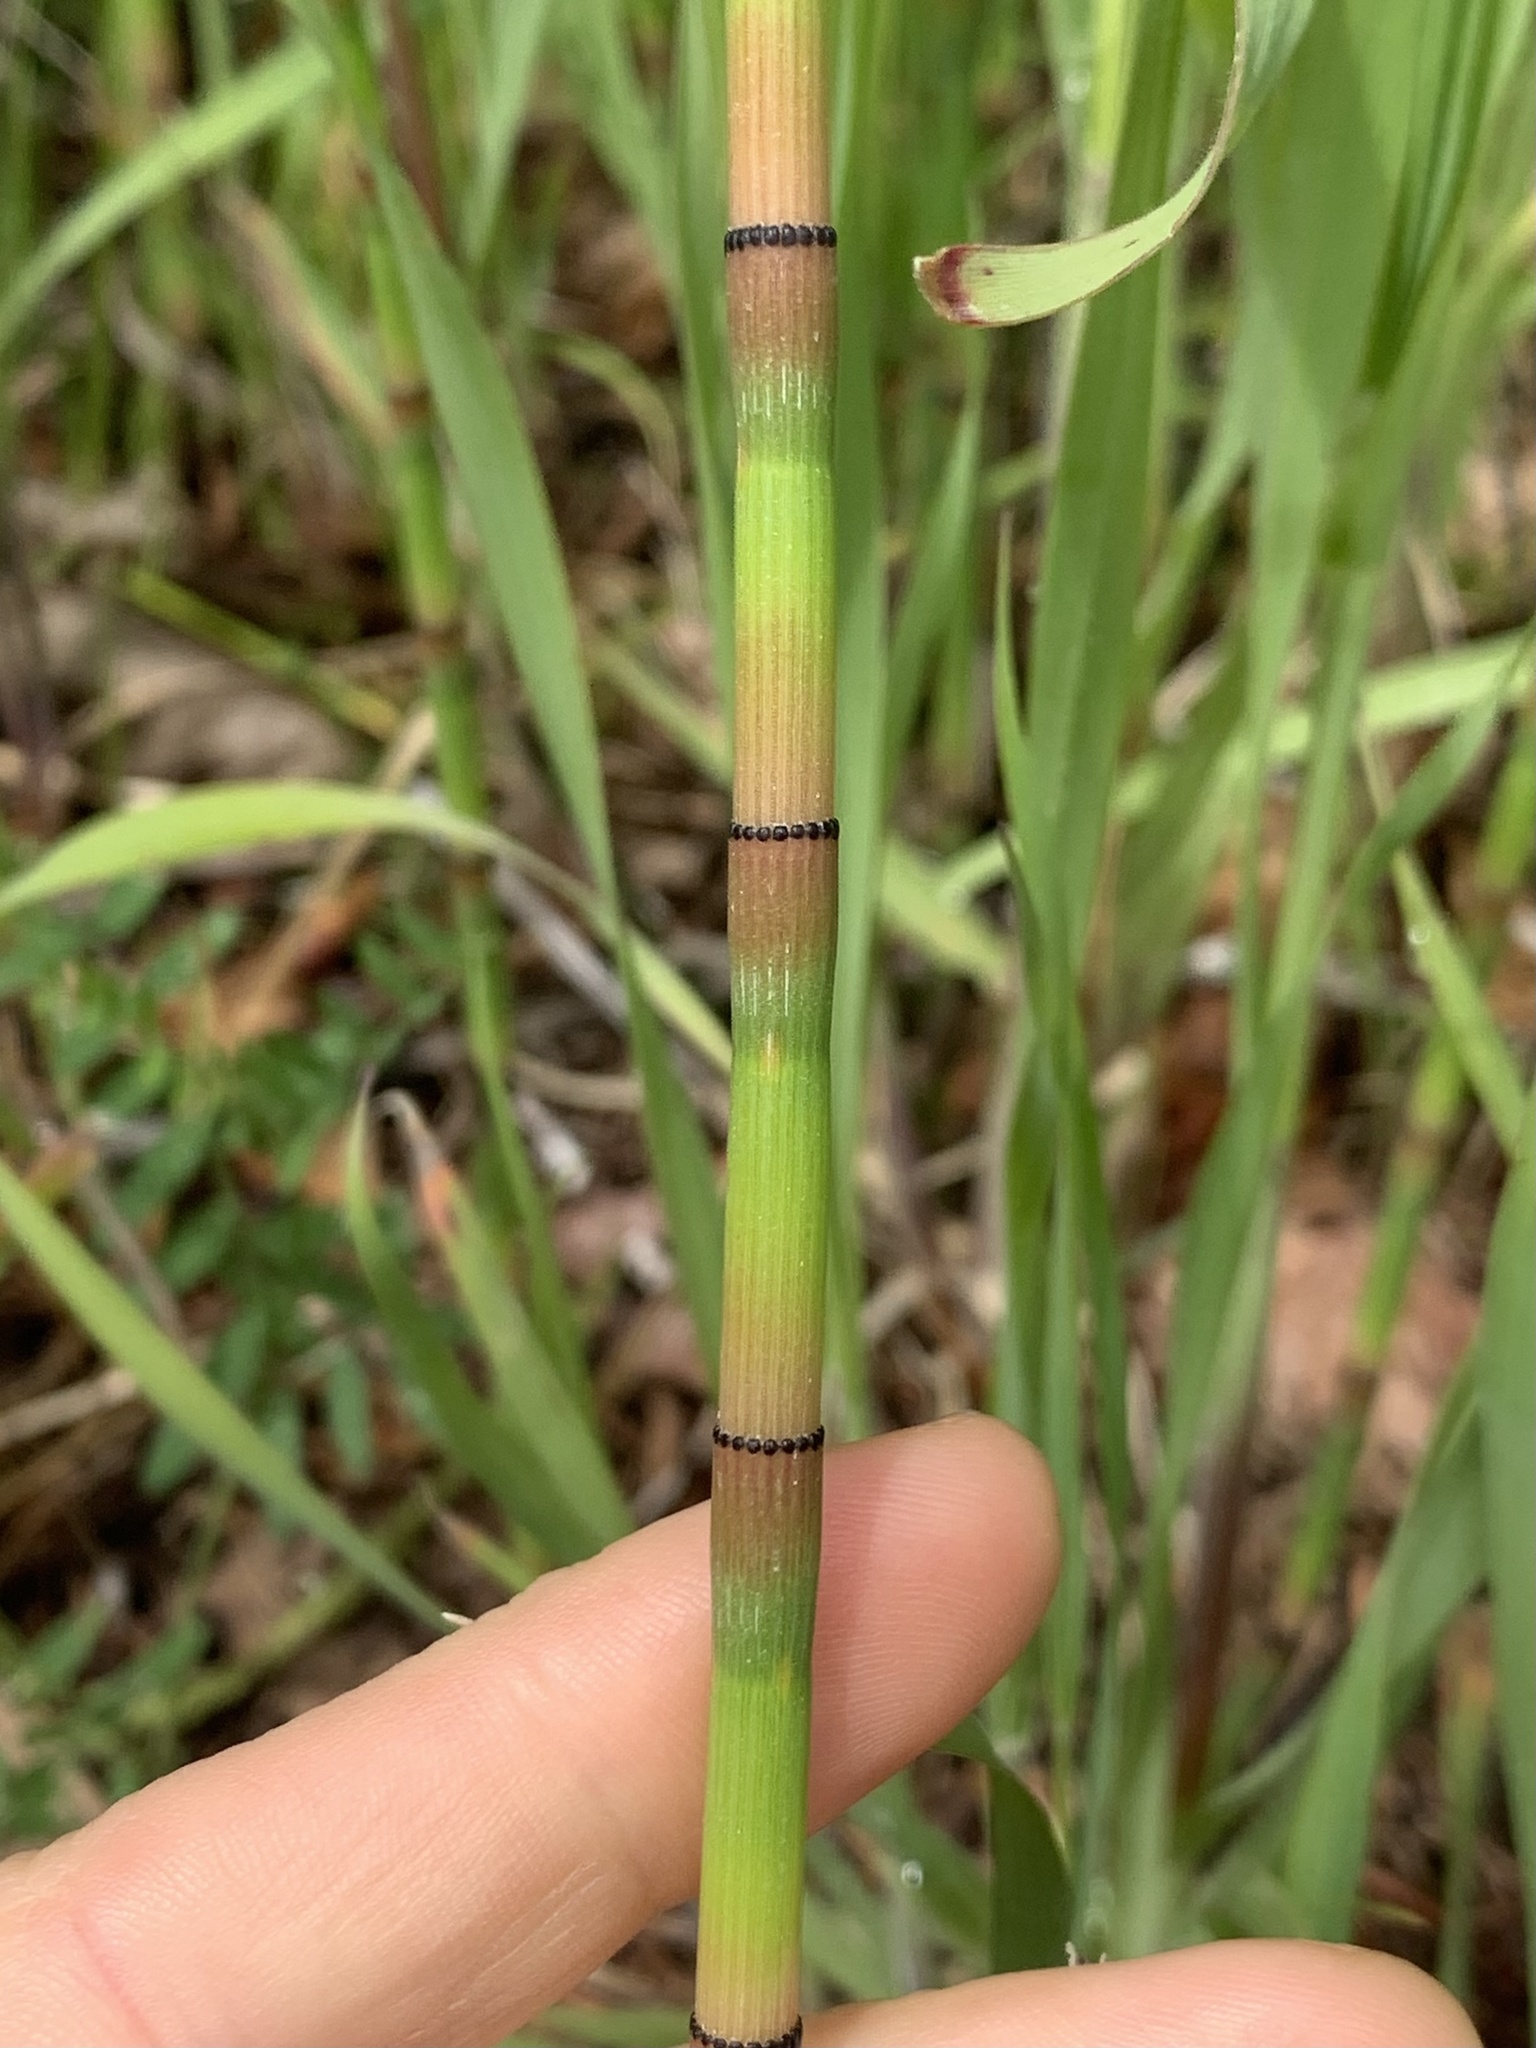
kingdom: Plantae
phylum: Tracheophyta
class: Polypodiopsida
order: Equisetales
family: Equisetaceae
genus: Equisetum
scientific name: Equisetum ferrissii
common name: Ferriss' horsetail
